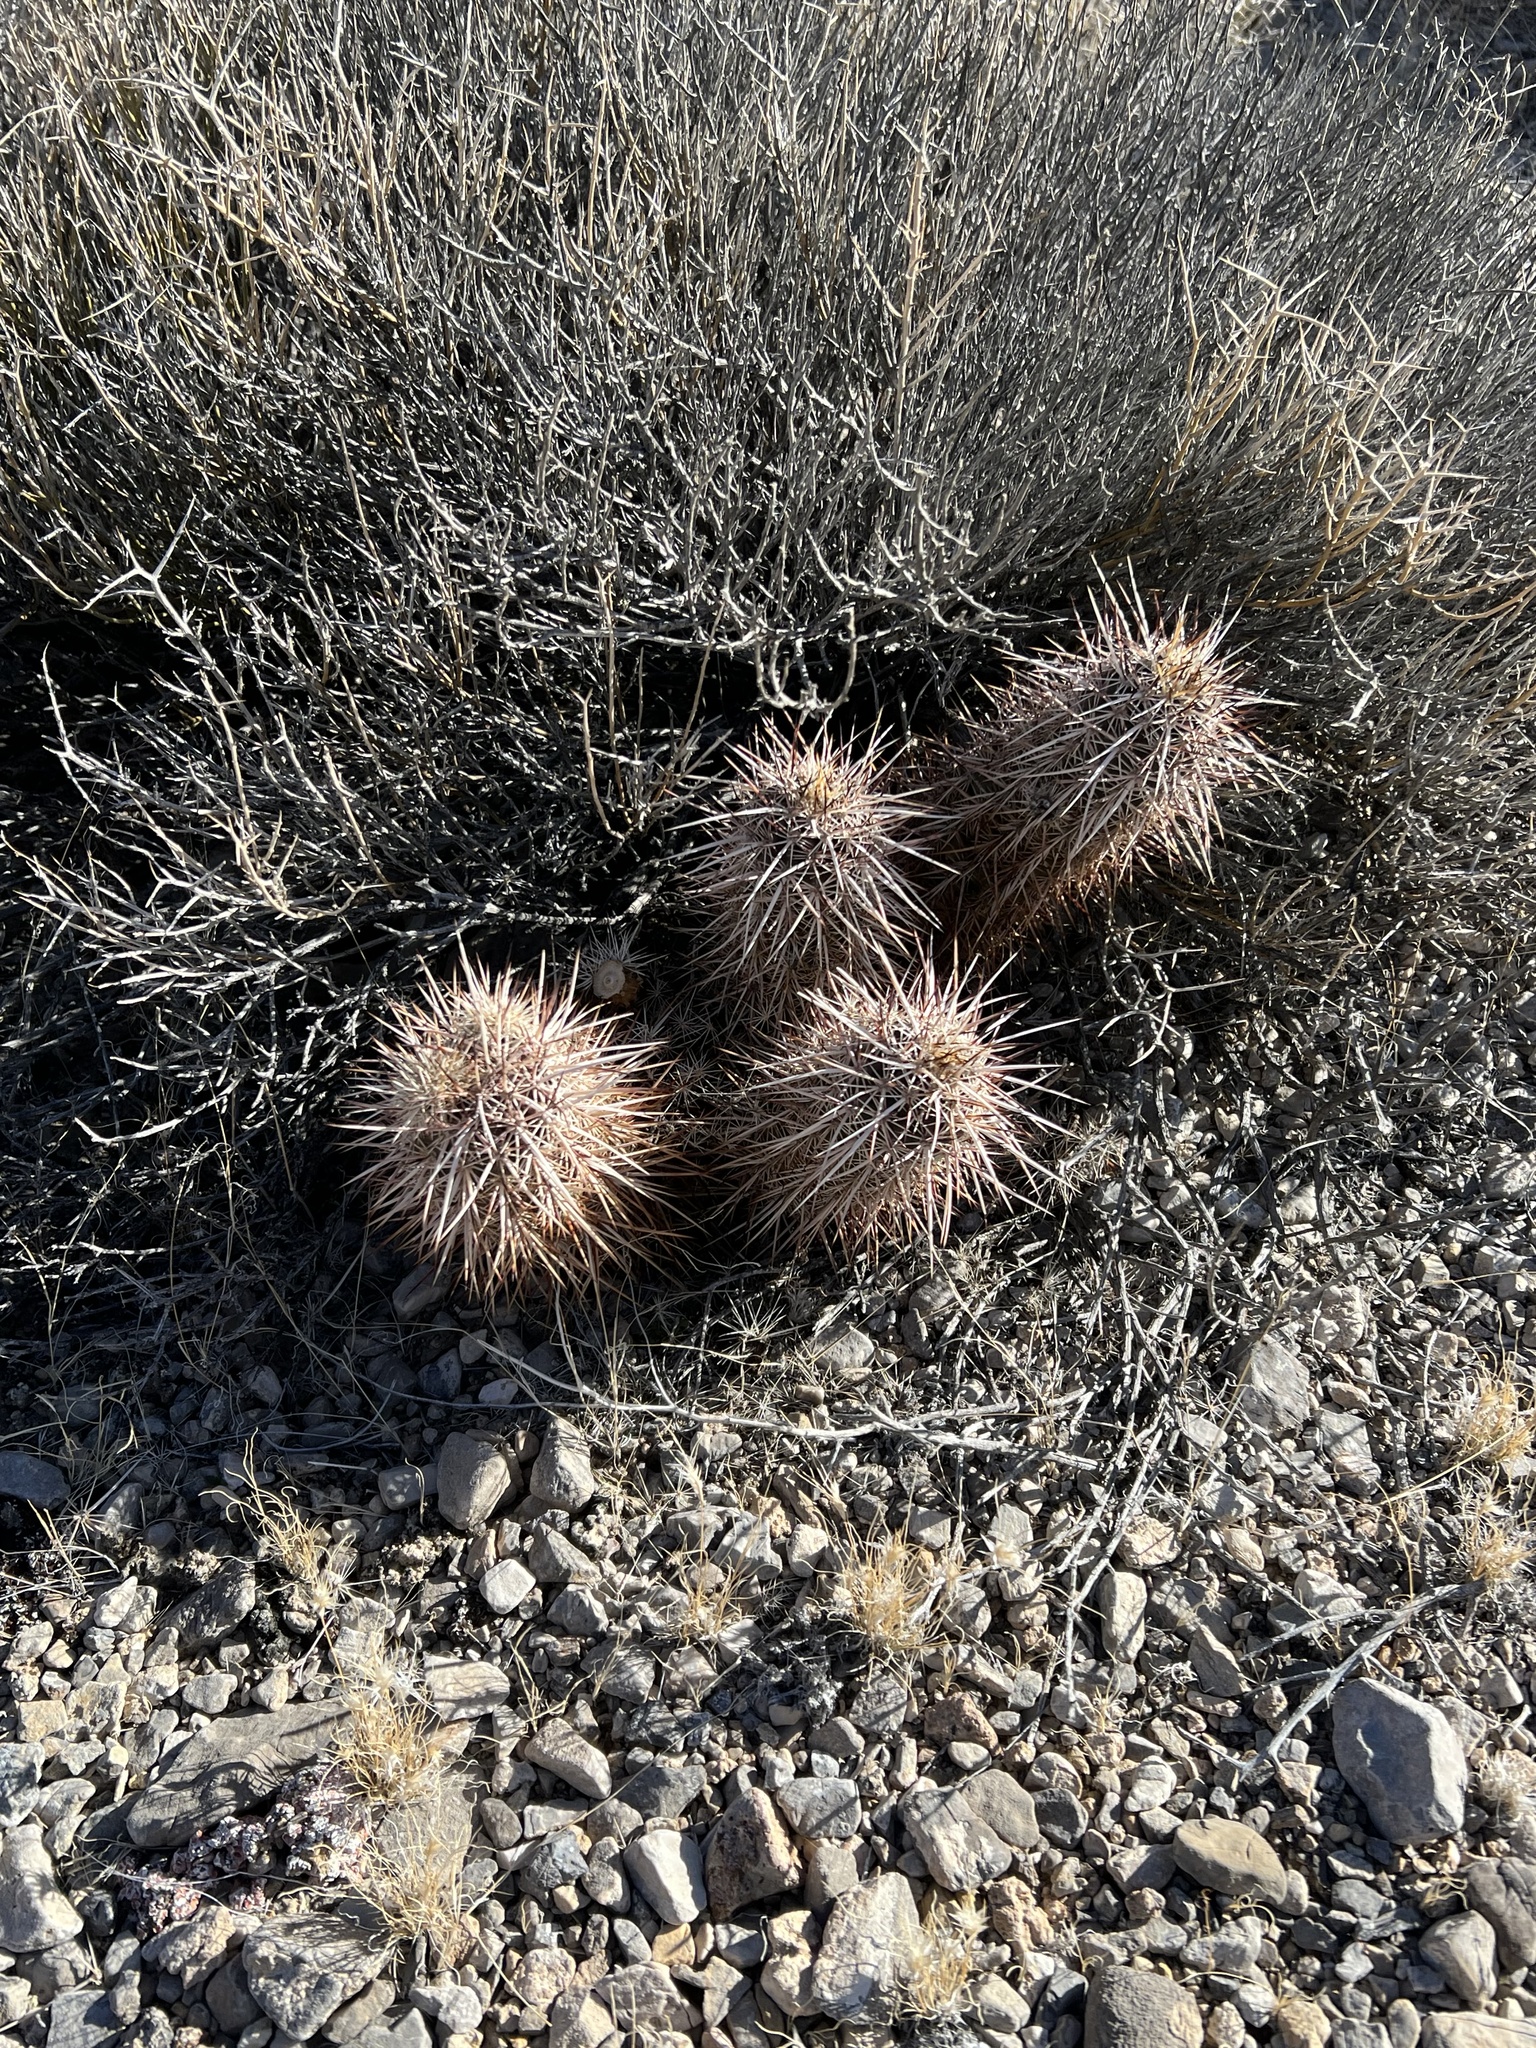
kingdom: Plantae
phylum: Tracheophyta
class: Magnoliopsida
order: Caryophyllales
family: Cactaceae
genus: Echinocereus
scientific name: Echinocereus engelmannii
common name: Engelmann's hedgehog cactus
